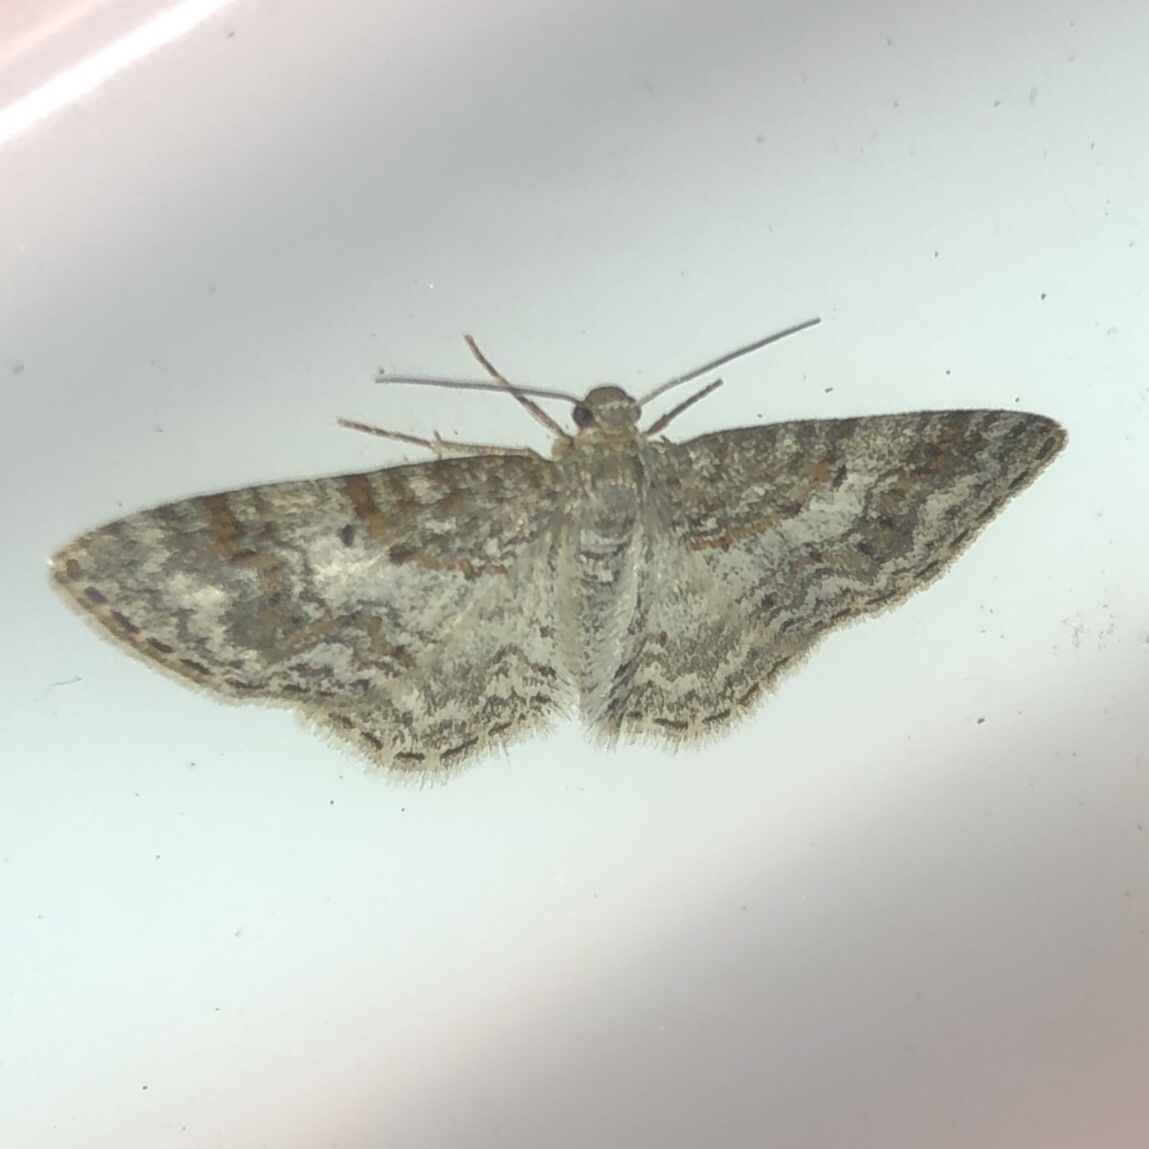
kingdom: Animalia
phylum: Arthropoda
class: Insecta
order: Lepidoptera
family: Geometridae
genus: Hydrelia
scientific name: Hydrelia inornata
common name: Unadorned carpet moth
